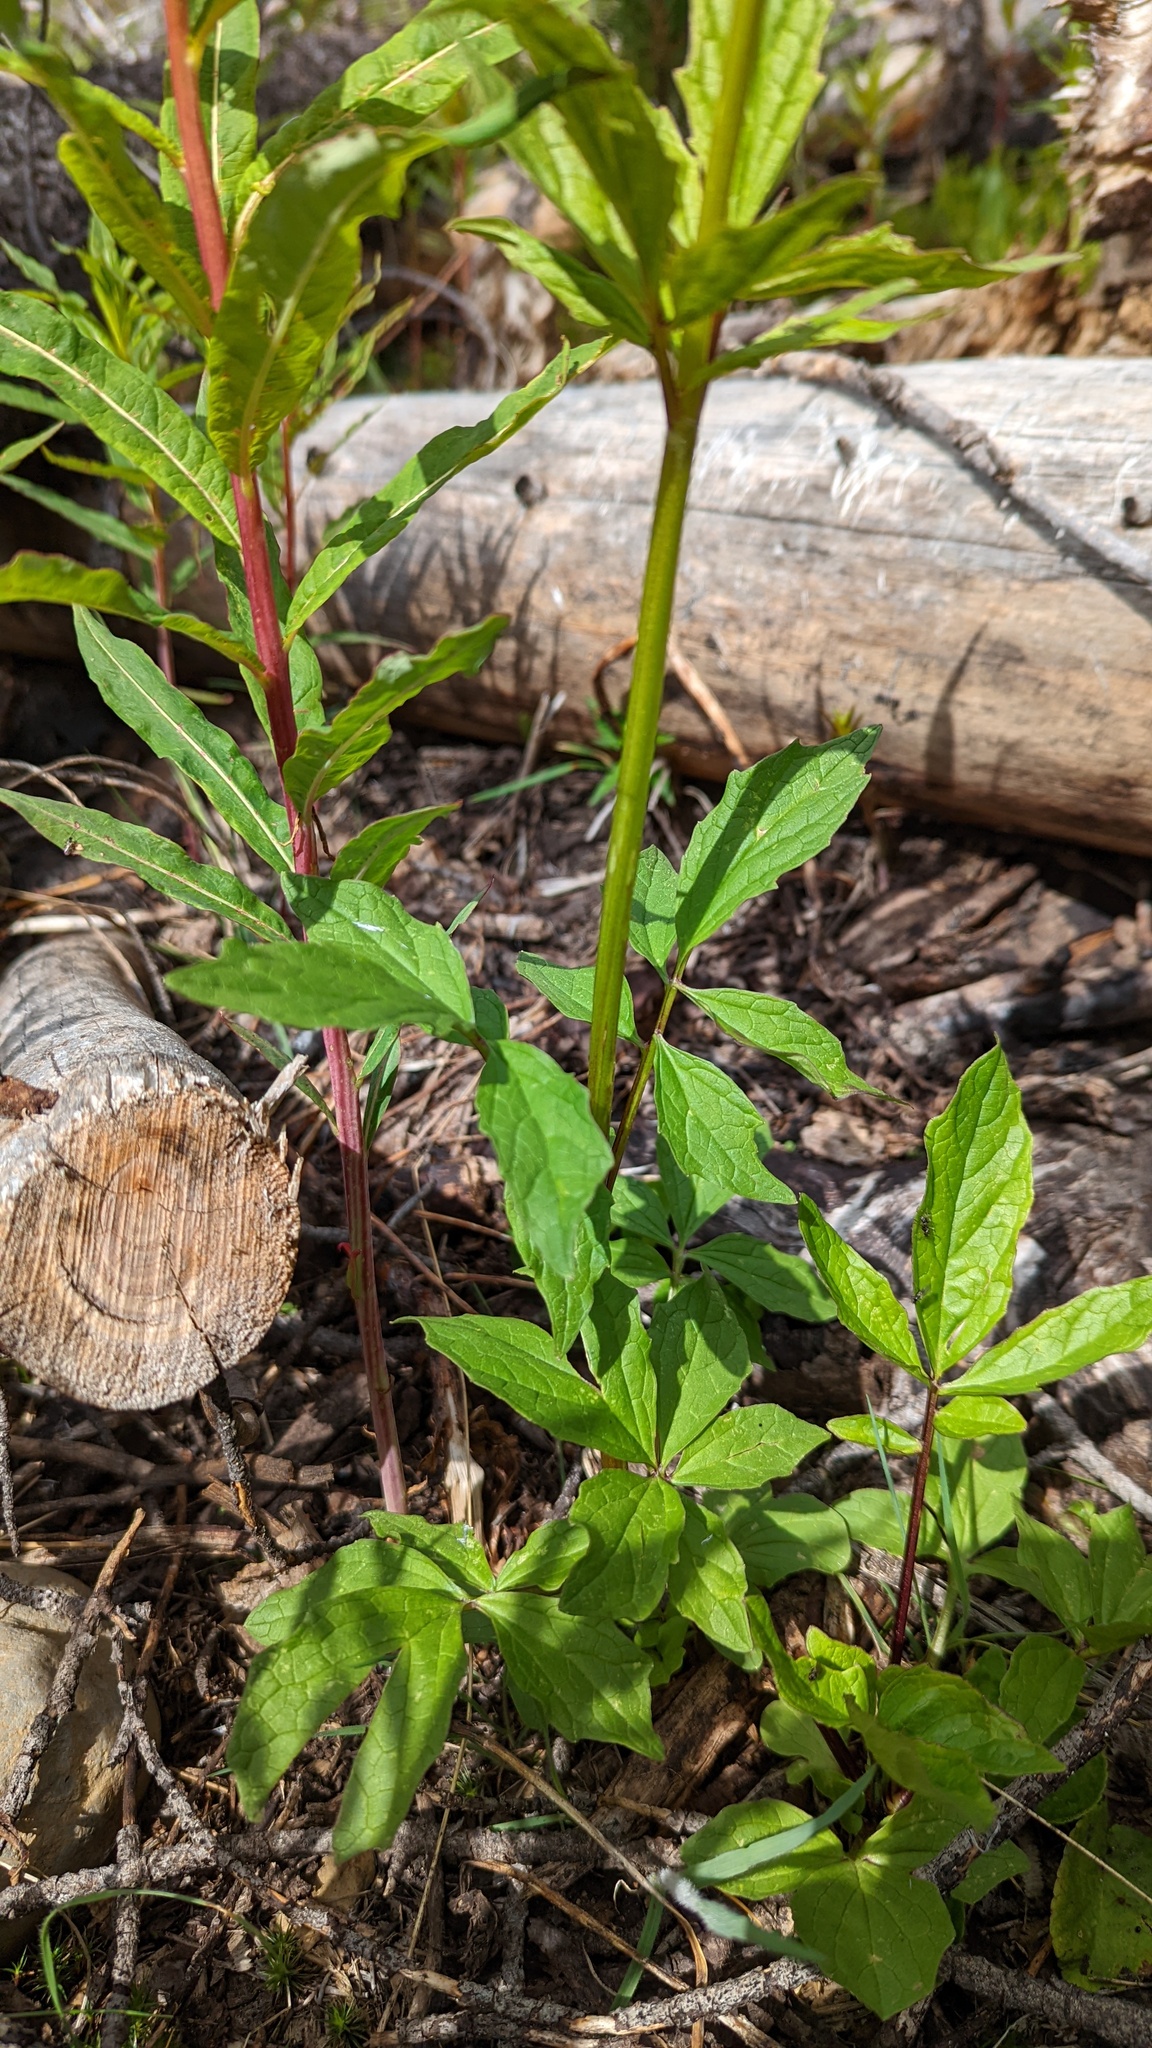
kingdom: Plantae
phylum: Tracheophyta
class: Magnoliopsida
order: Dipsacales
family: Caprifoliaceae
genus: Valeriana
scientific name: Valeriana sitchensis
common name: Pacific valerian
